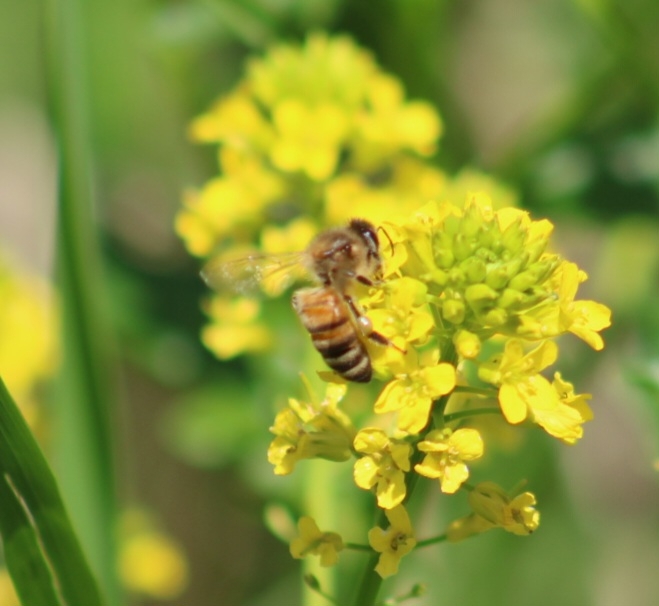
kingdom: Animalia
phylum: Arthropoda
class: Insecta
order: Hymenoptera
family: Apidae
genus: Apis
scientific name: Apis mellifera
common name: Honey bee
